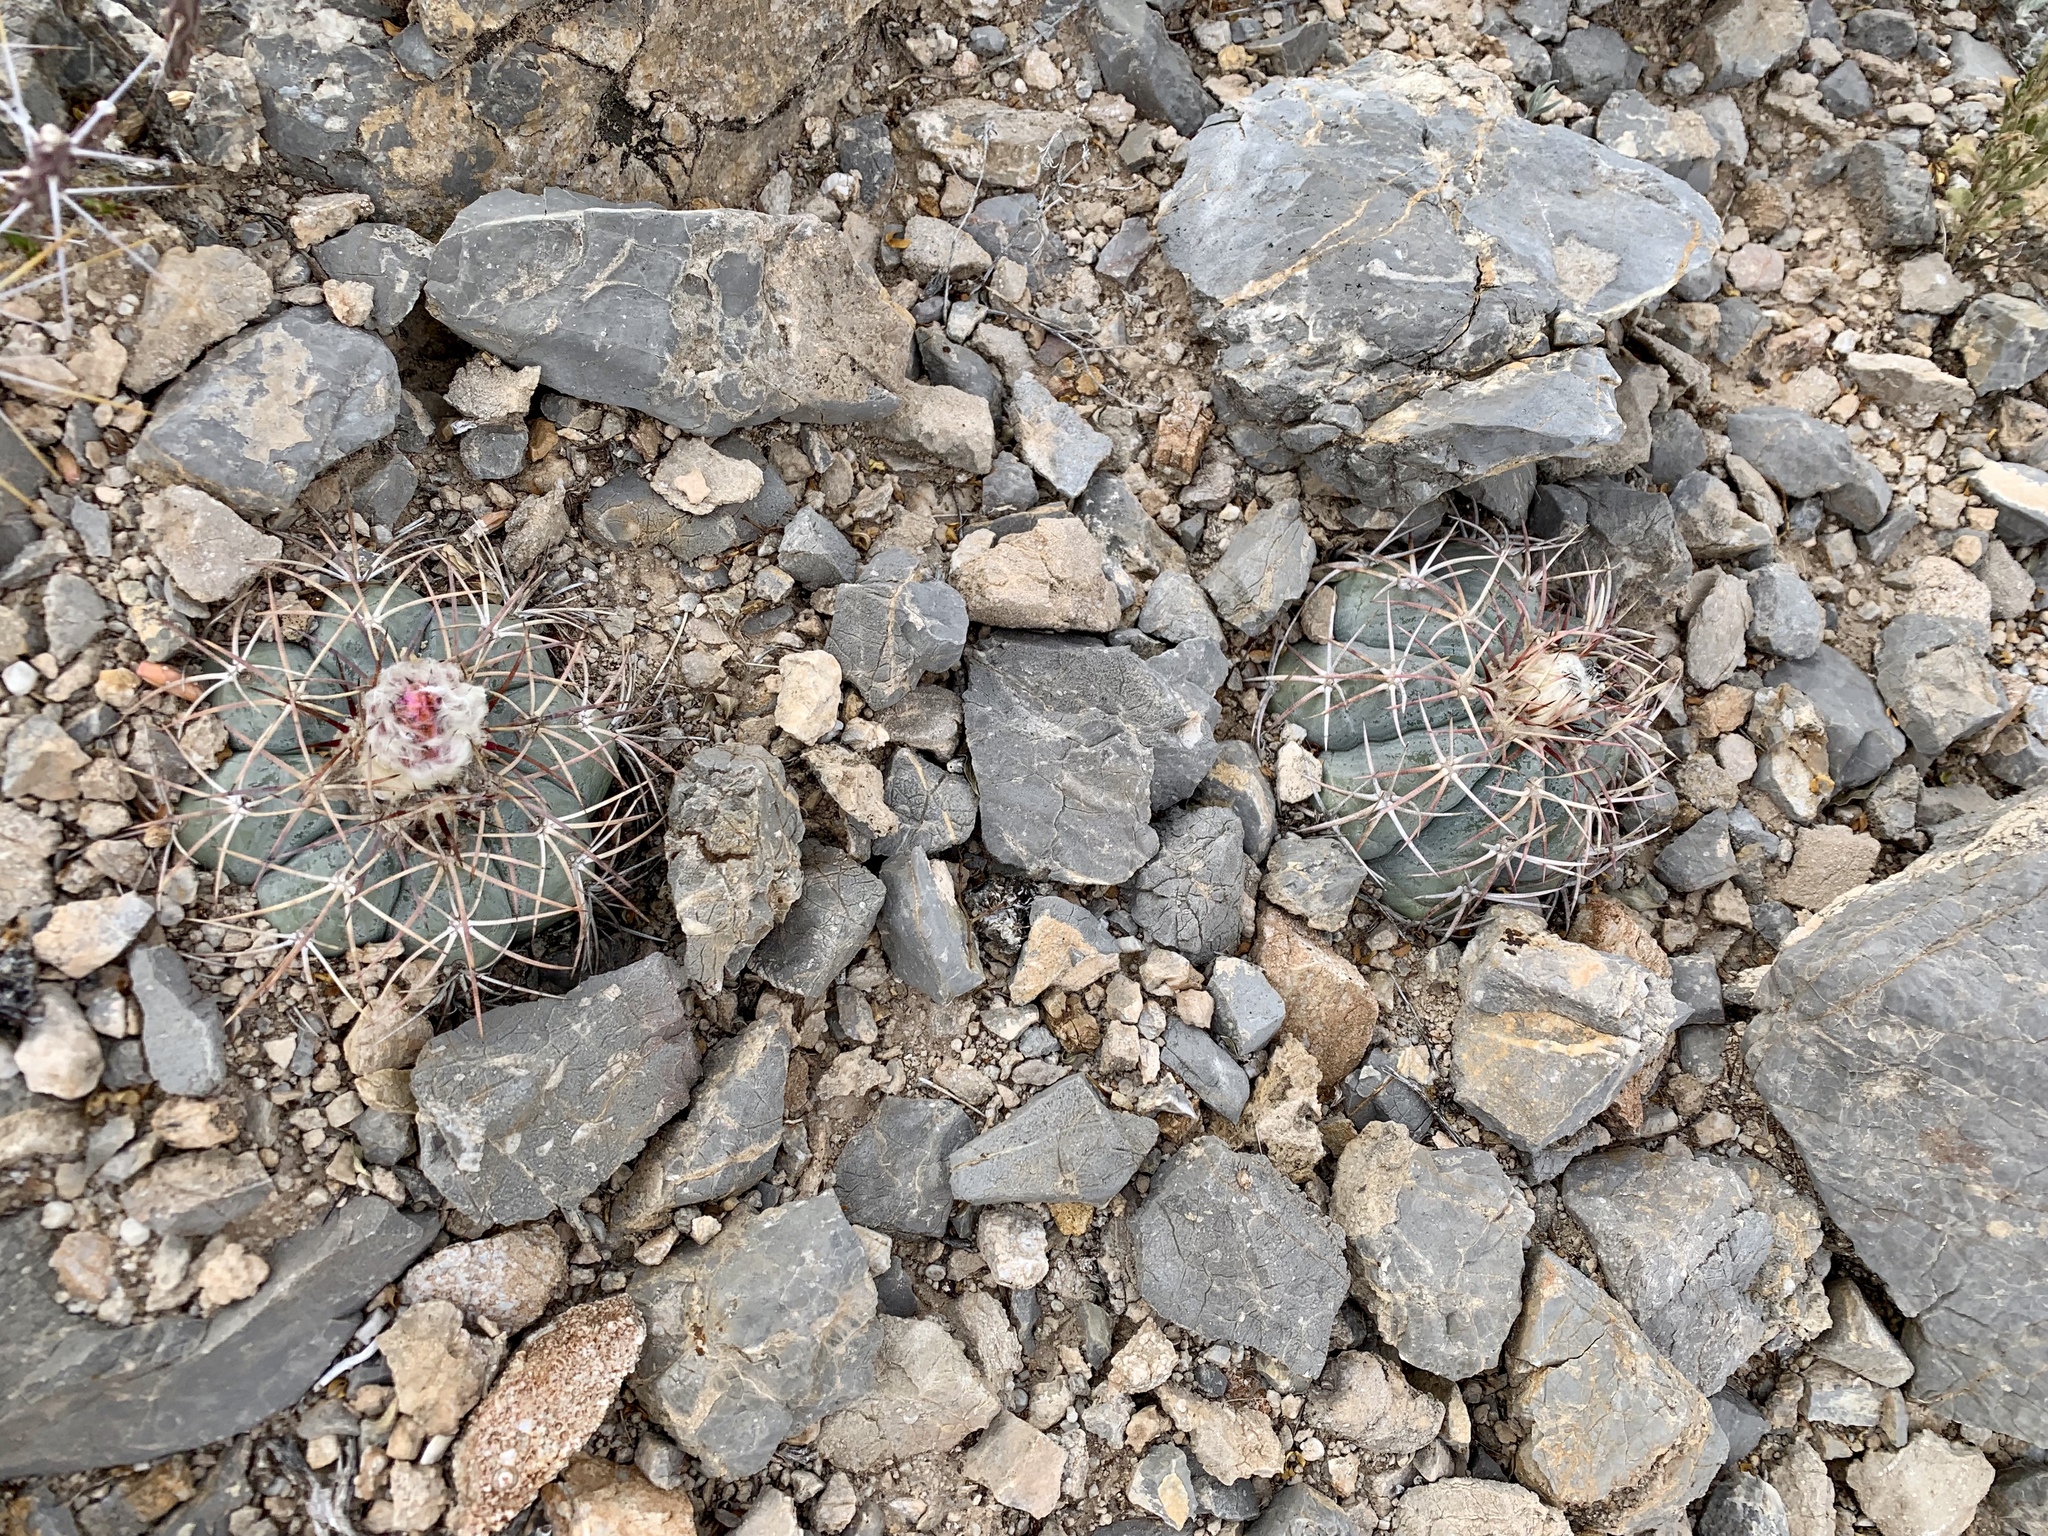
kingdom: Plantae
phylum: Tracheophyta
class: Magnoliopsida
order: Caryophyllales
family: Cactaceae
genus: Echinocactus
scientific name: Echinocactus horizonthalonius
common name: Devilshead
